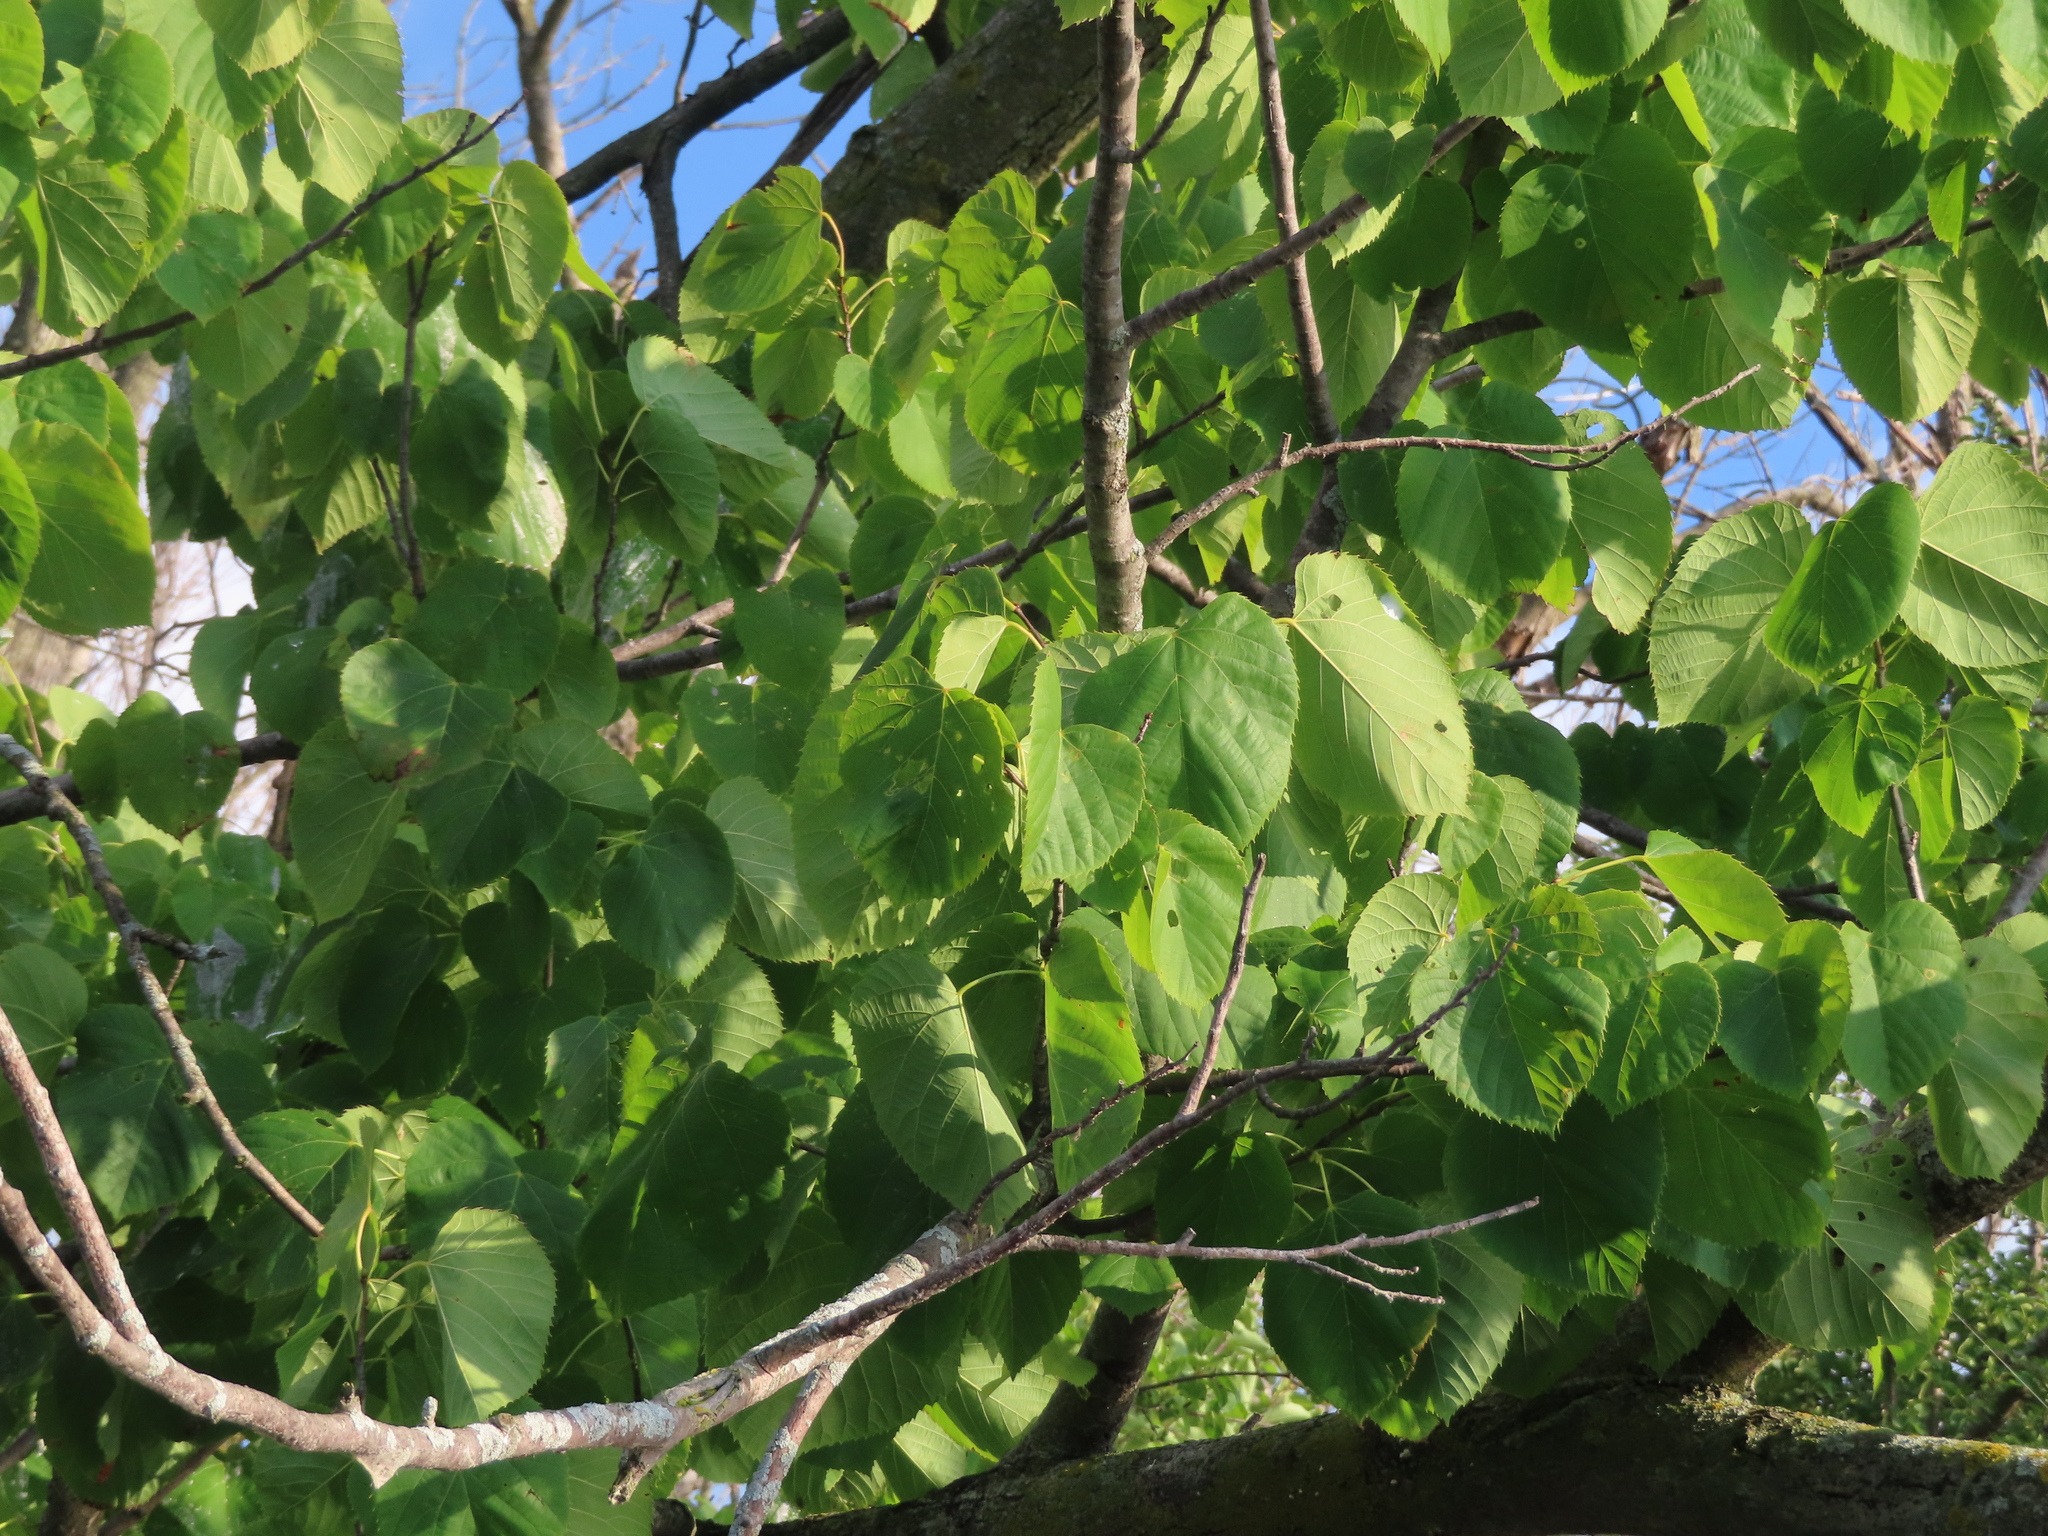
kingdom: Plantae
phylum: Tracheophyta
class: Magnoliopsida
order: Malvales
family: Malvaceae
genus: Tilia
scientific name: Tilia americana
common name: Basswood
